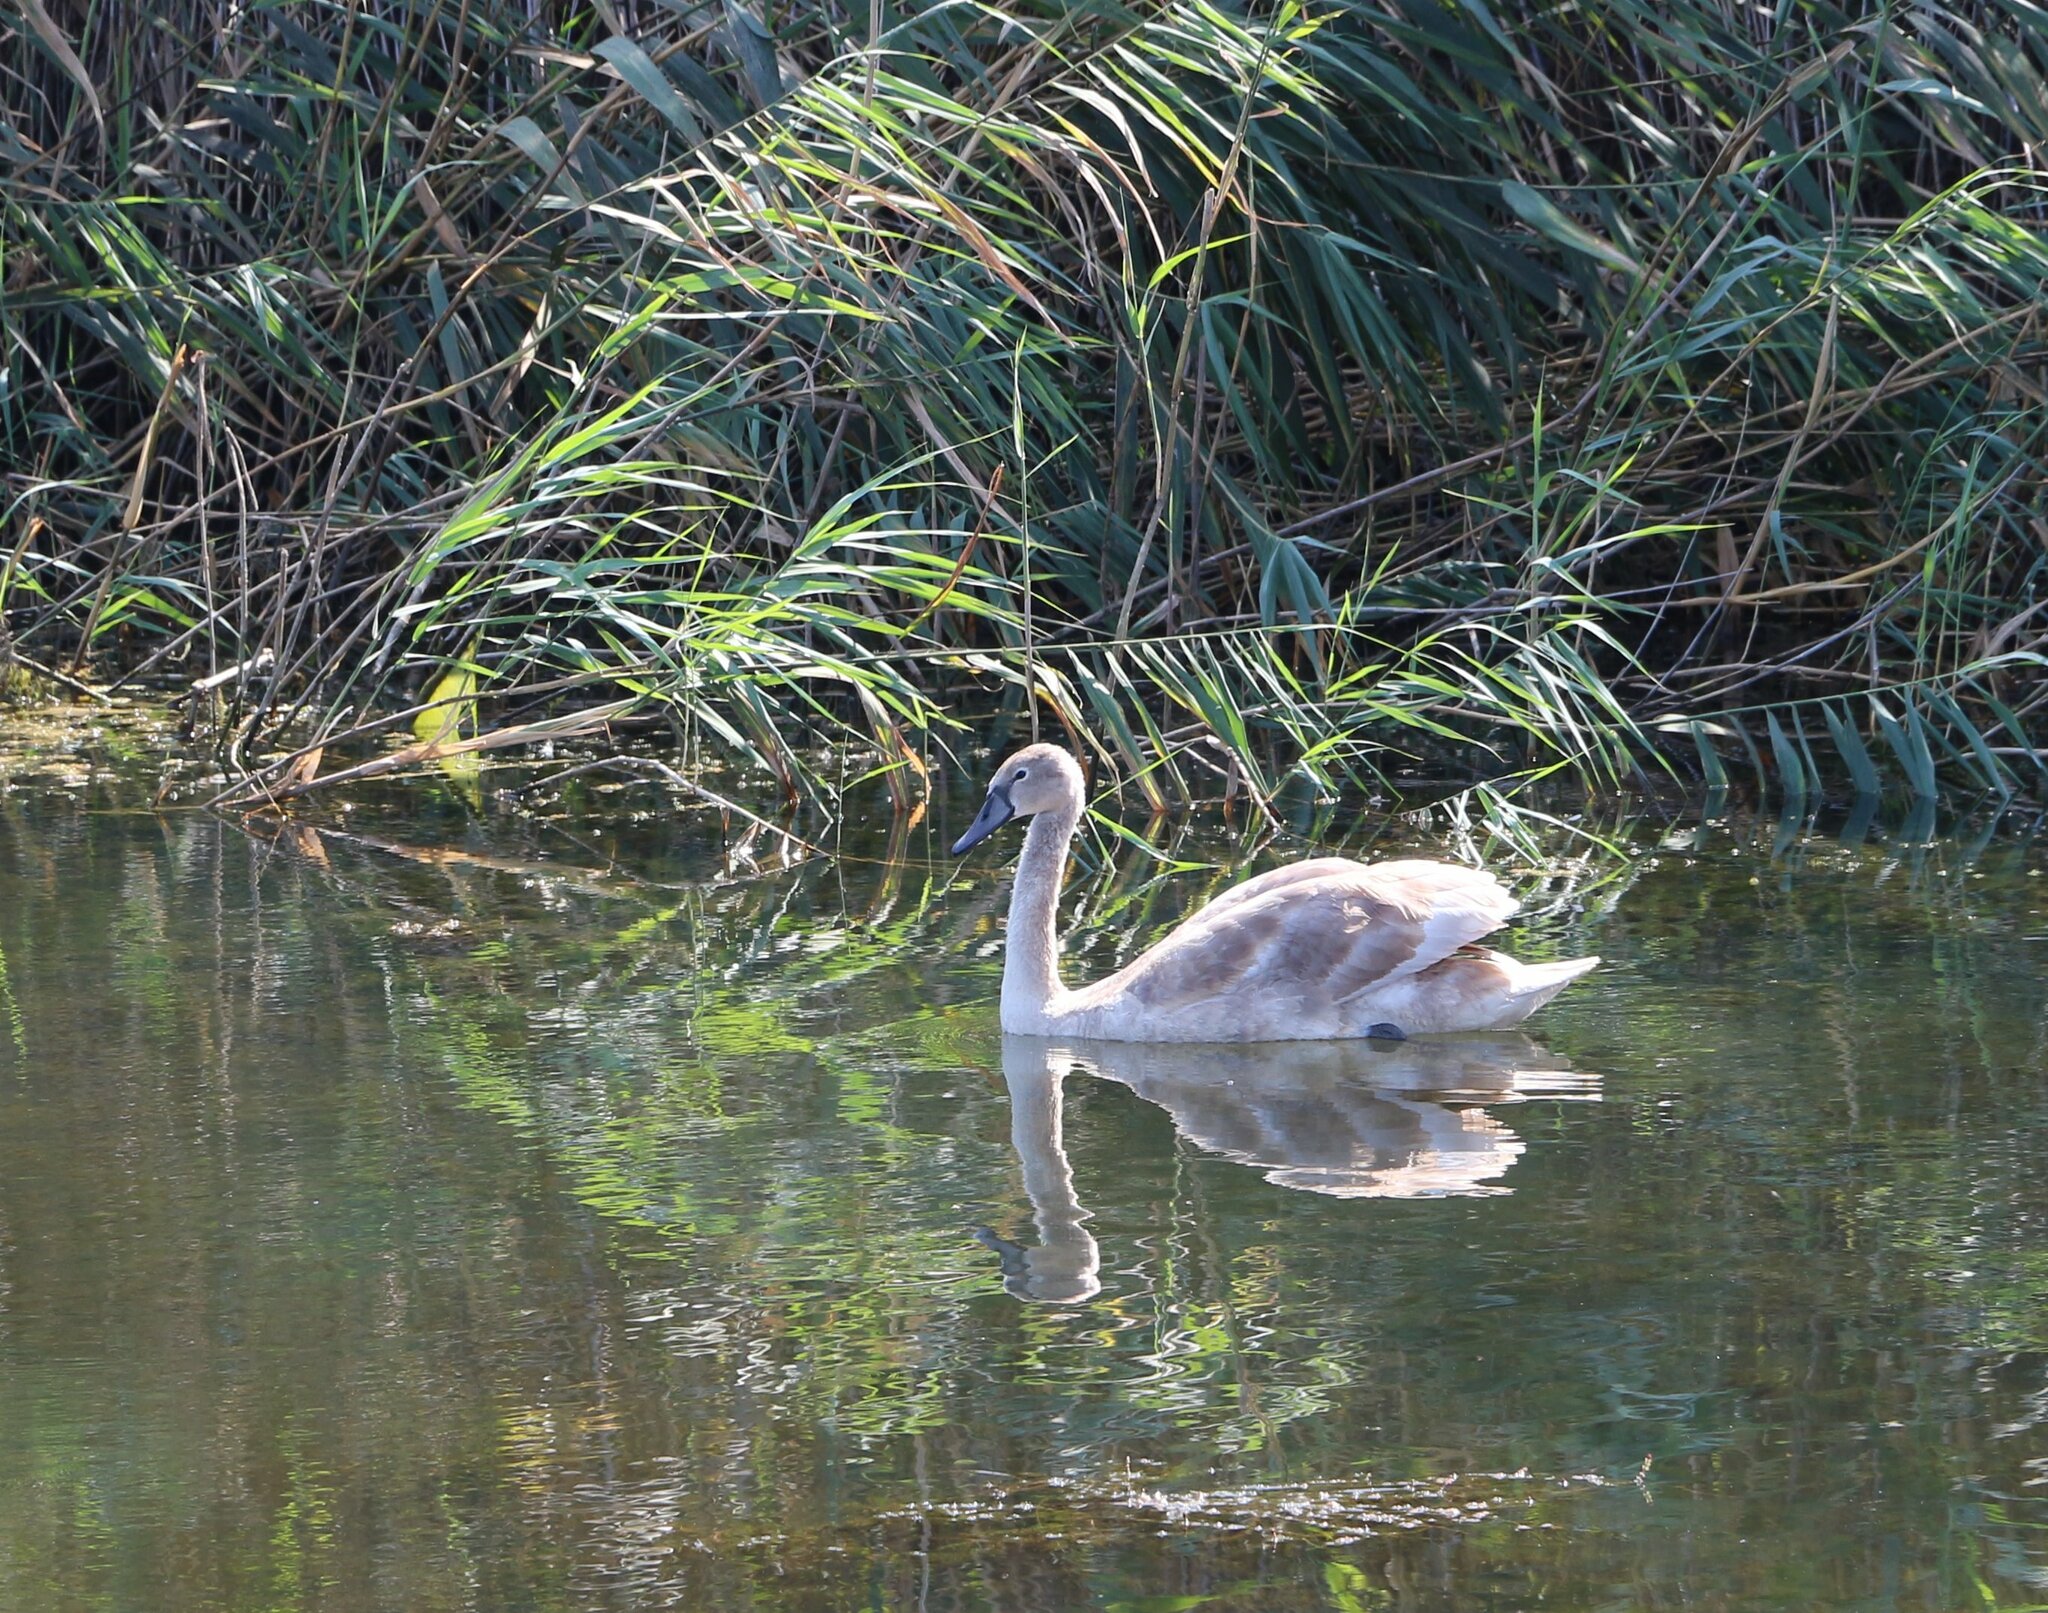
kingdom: Animalia
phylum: Chordata
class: Aves
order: Anseriformes
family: Anatidae
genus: Cygnus
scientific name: Cygnus olor
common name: Mute swan
